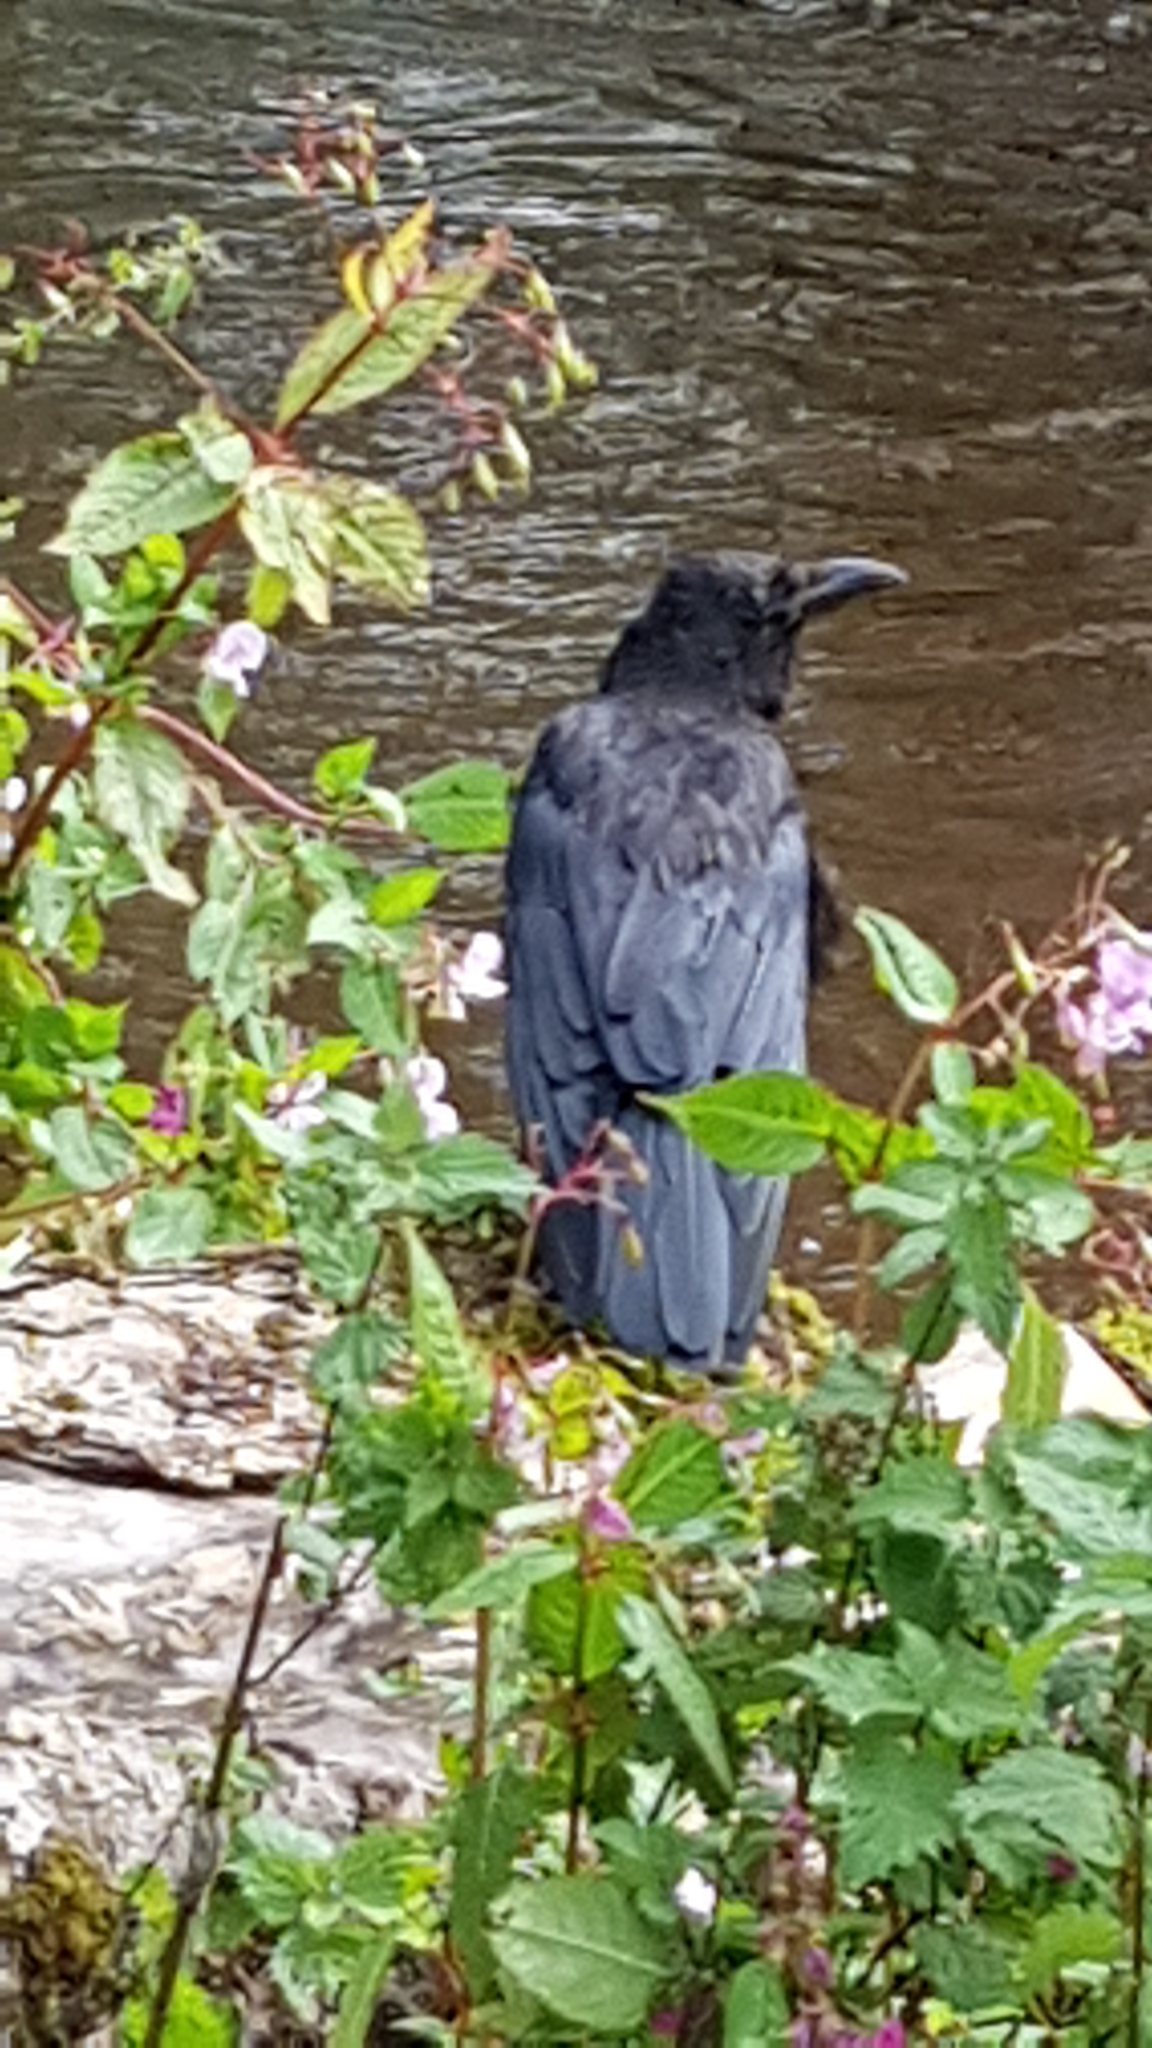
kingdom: Animalia
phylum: Chordata
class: Aves
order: Passeriformes
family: Corvidae
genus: Corvus
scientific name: Corvus corax
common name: Common raven
